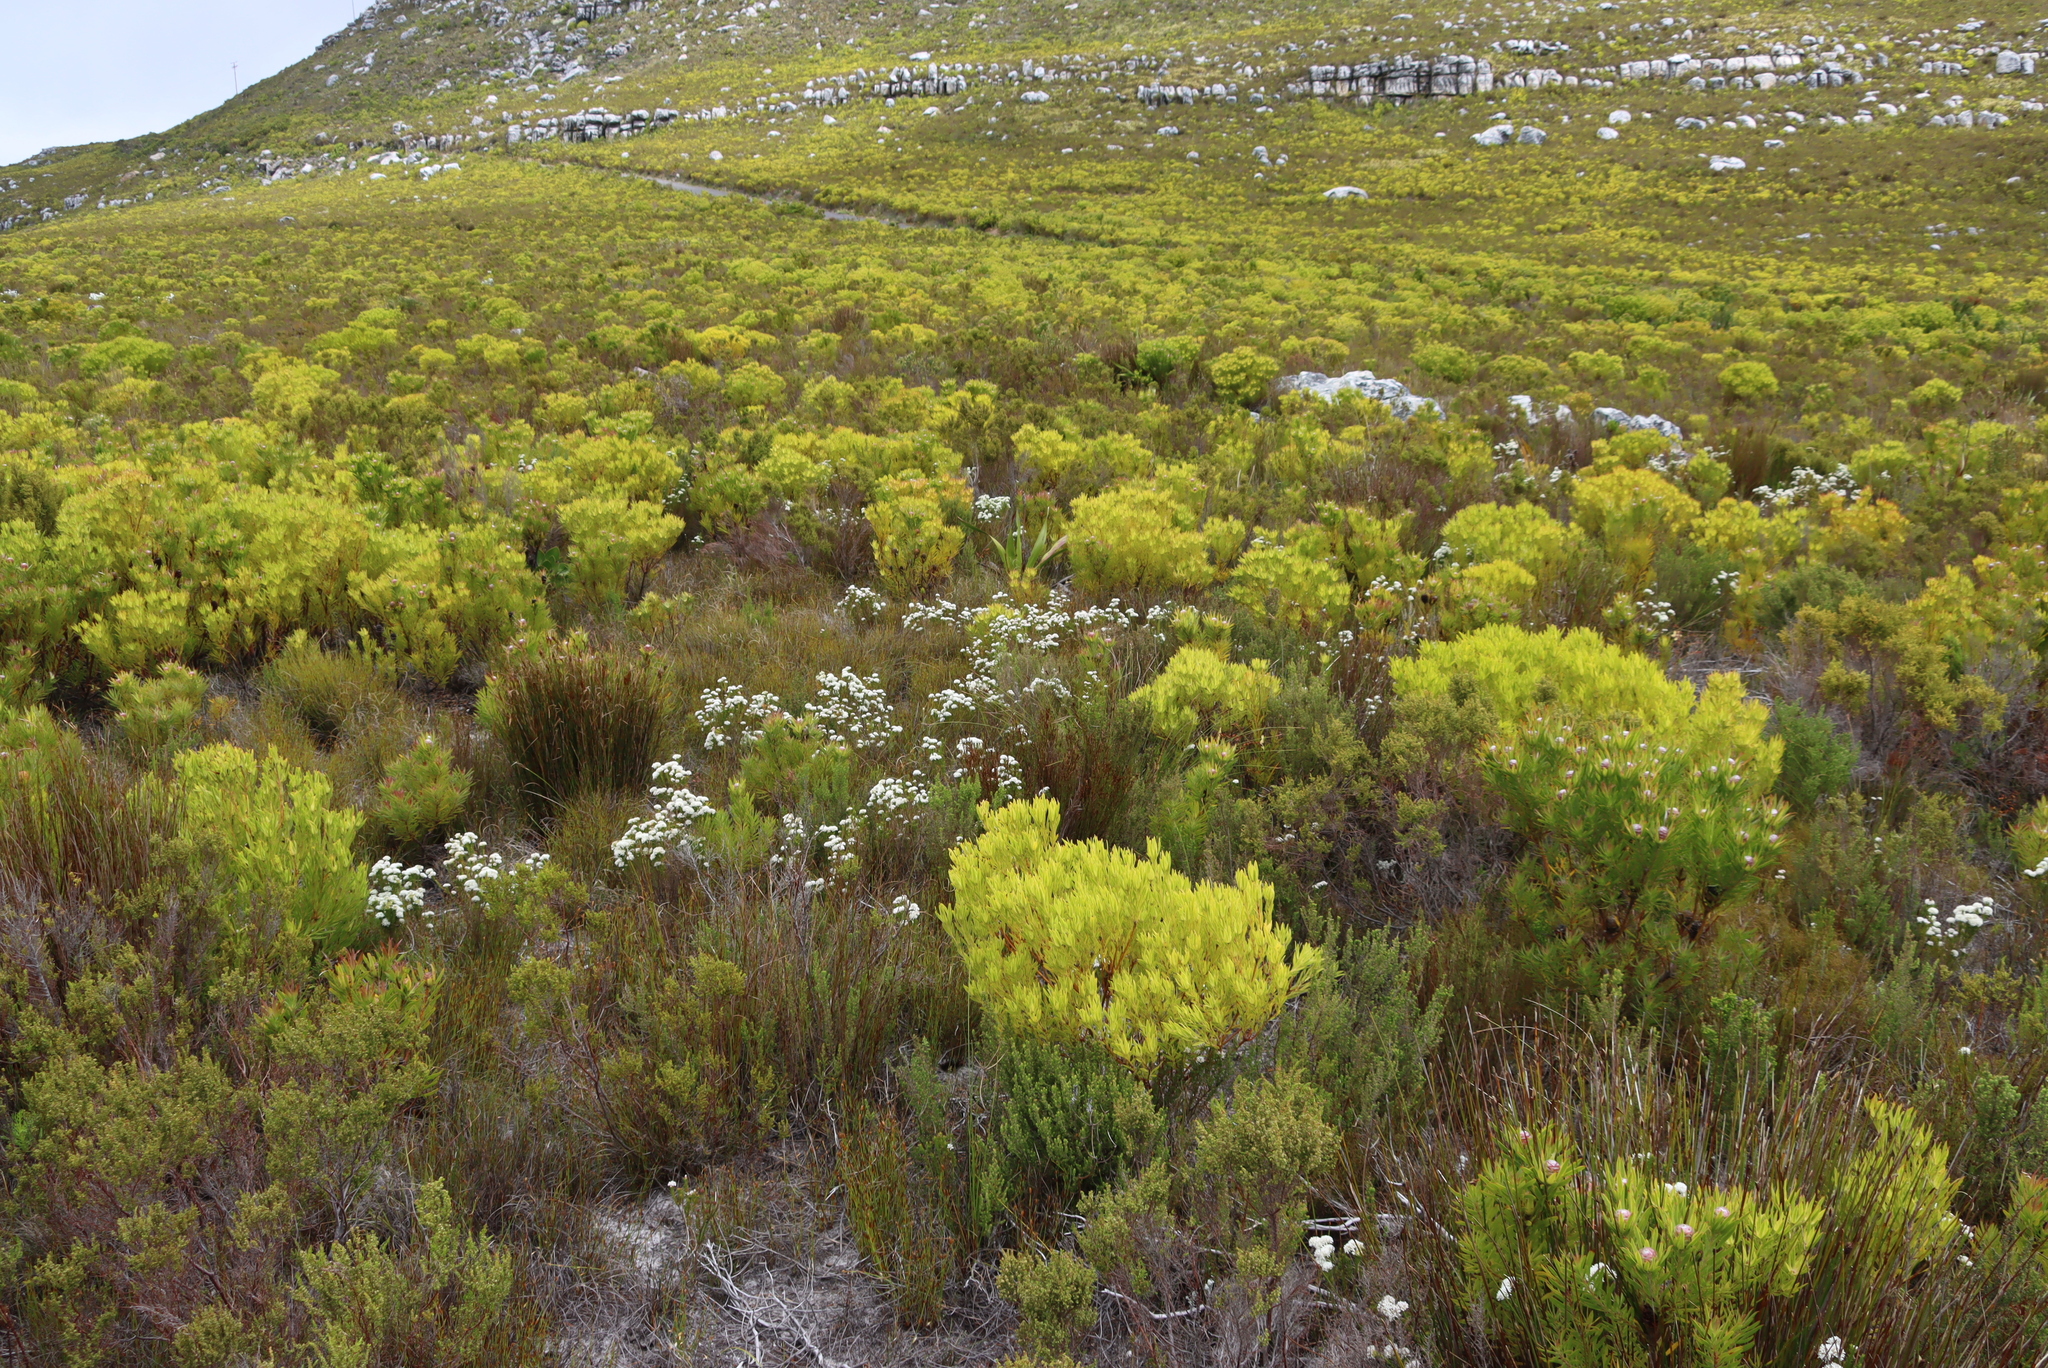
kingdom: Plantae
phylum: Tracheophyta
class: Magnoliopsida
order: Proteales
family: Proteaceae
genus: Leucadendron
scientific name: Leucadendron xanthoconus
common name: Sickle-leaf conebush
